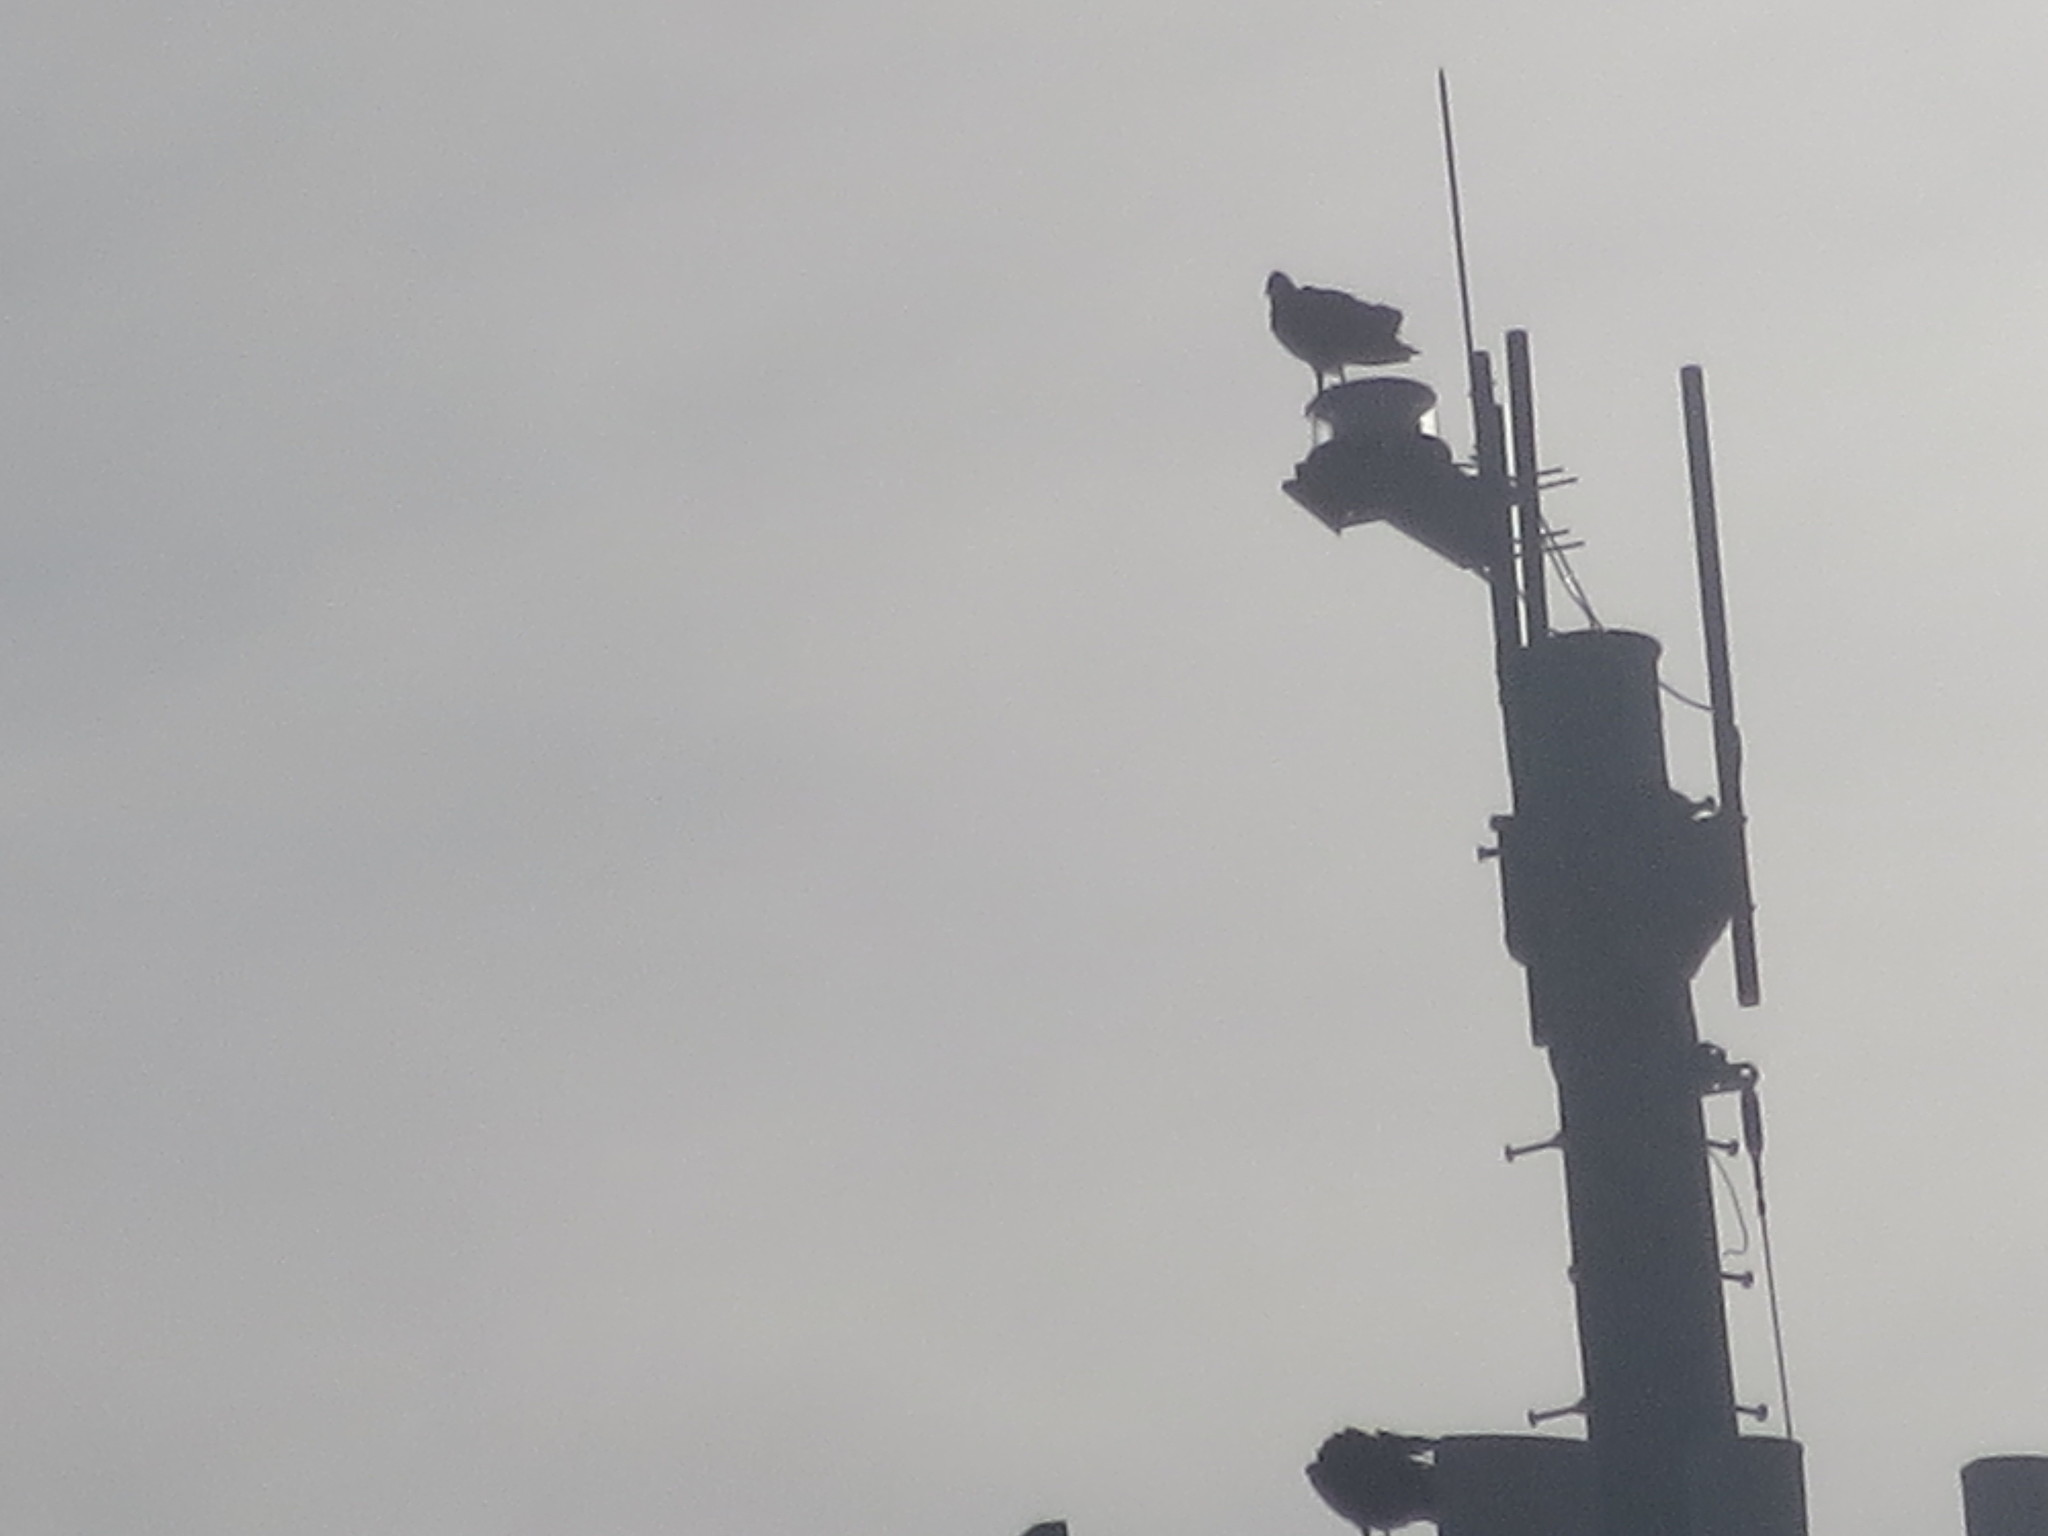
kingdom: Animalia
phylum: Chordata
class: Aves
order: Accipitriformes
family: Cathartidae
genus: Coragyps
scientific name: Coragyps atratus
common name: Black vulture
